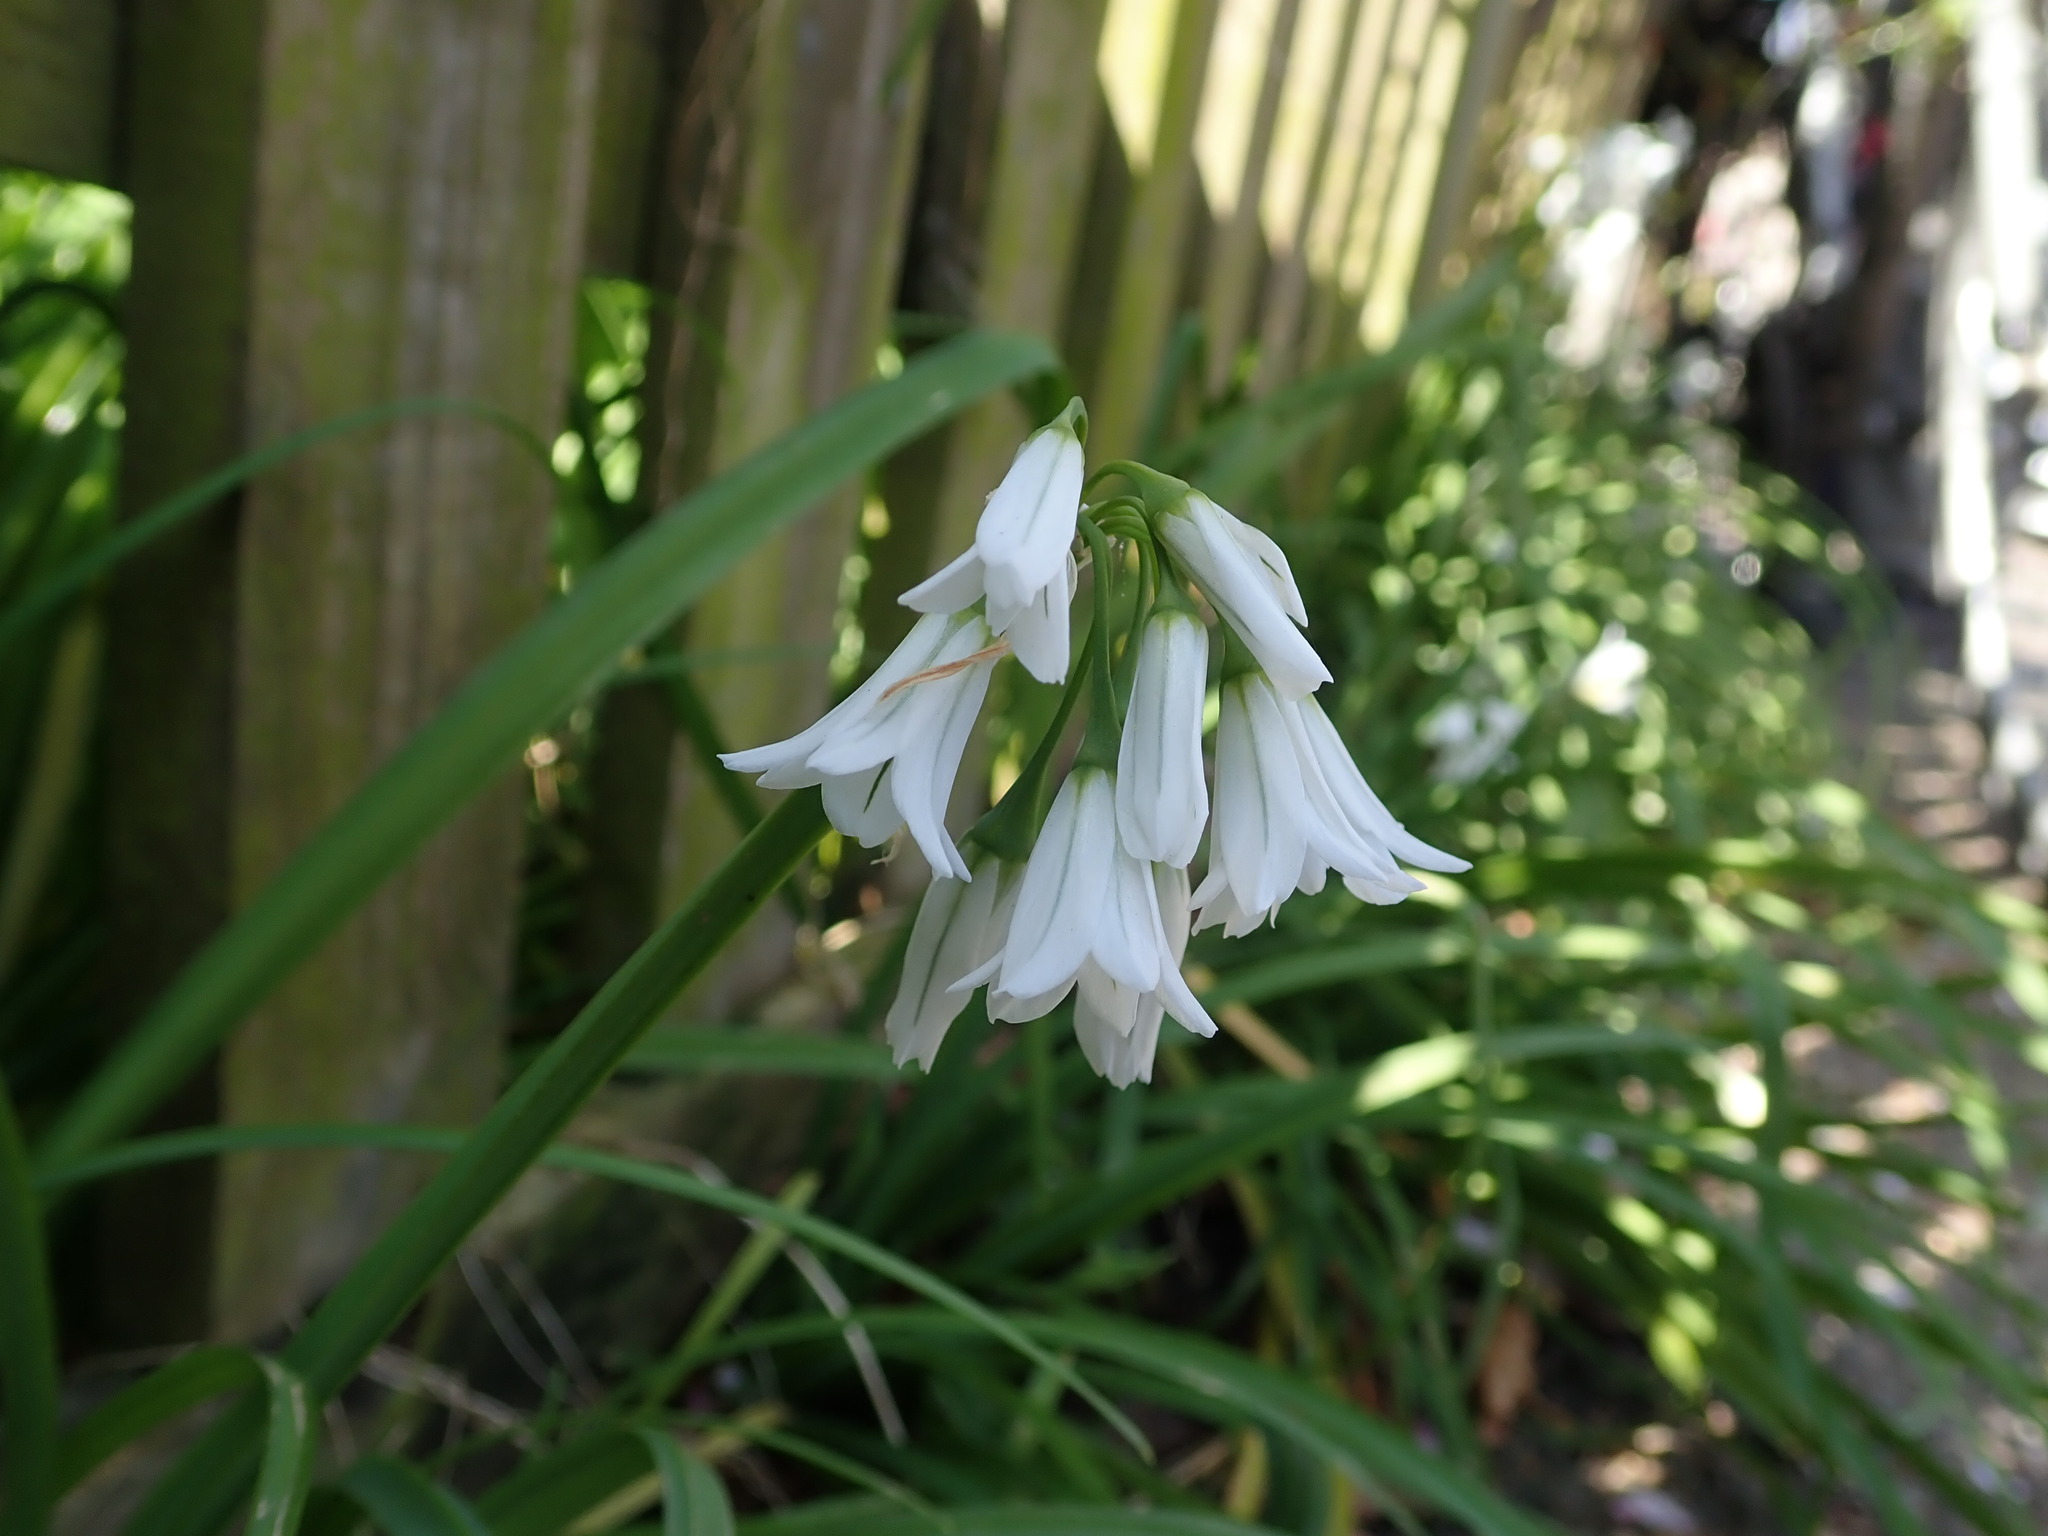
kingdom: Plantae
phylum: Tracheophyta
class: Liliopsida
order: Asparagales
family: Amaryllidaceae
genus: Allium
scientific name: Allium triquetrum
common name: Three-cornered garlic
